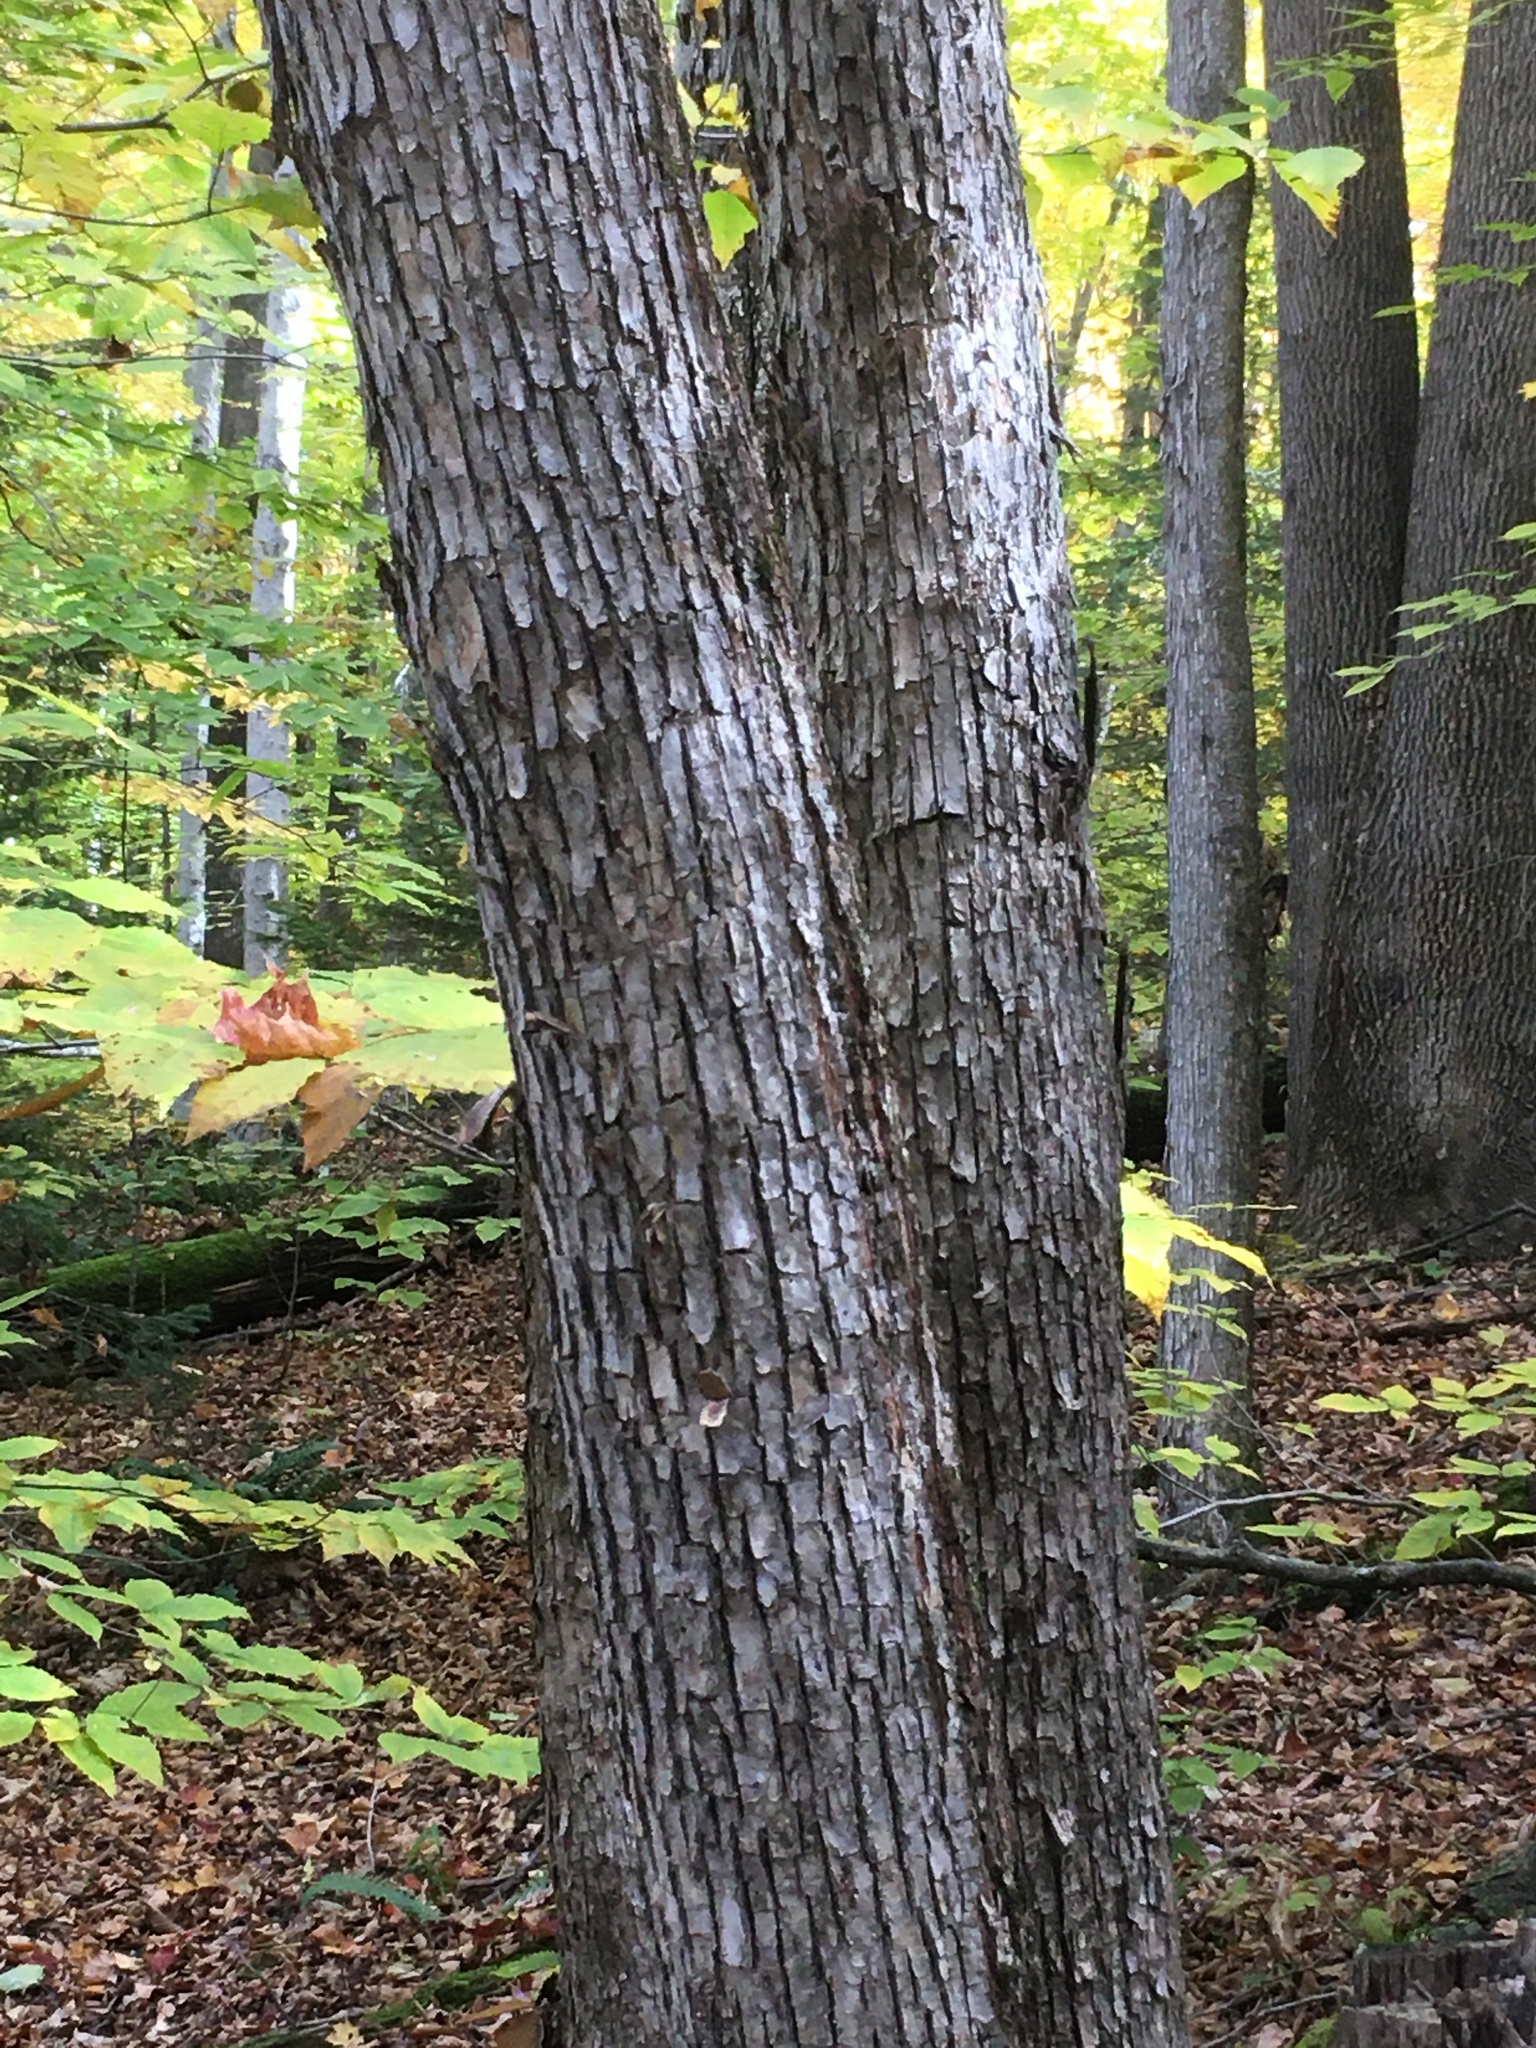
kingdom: Plantae
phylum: Tracheophyta
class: Magnoliopsida
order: Fagales
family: Betulaceae
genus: Ostrya
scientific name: Ostrya virginiana
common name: Ironwood
